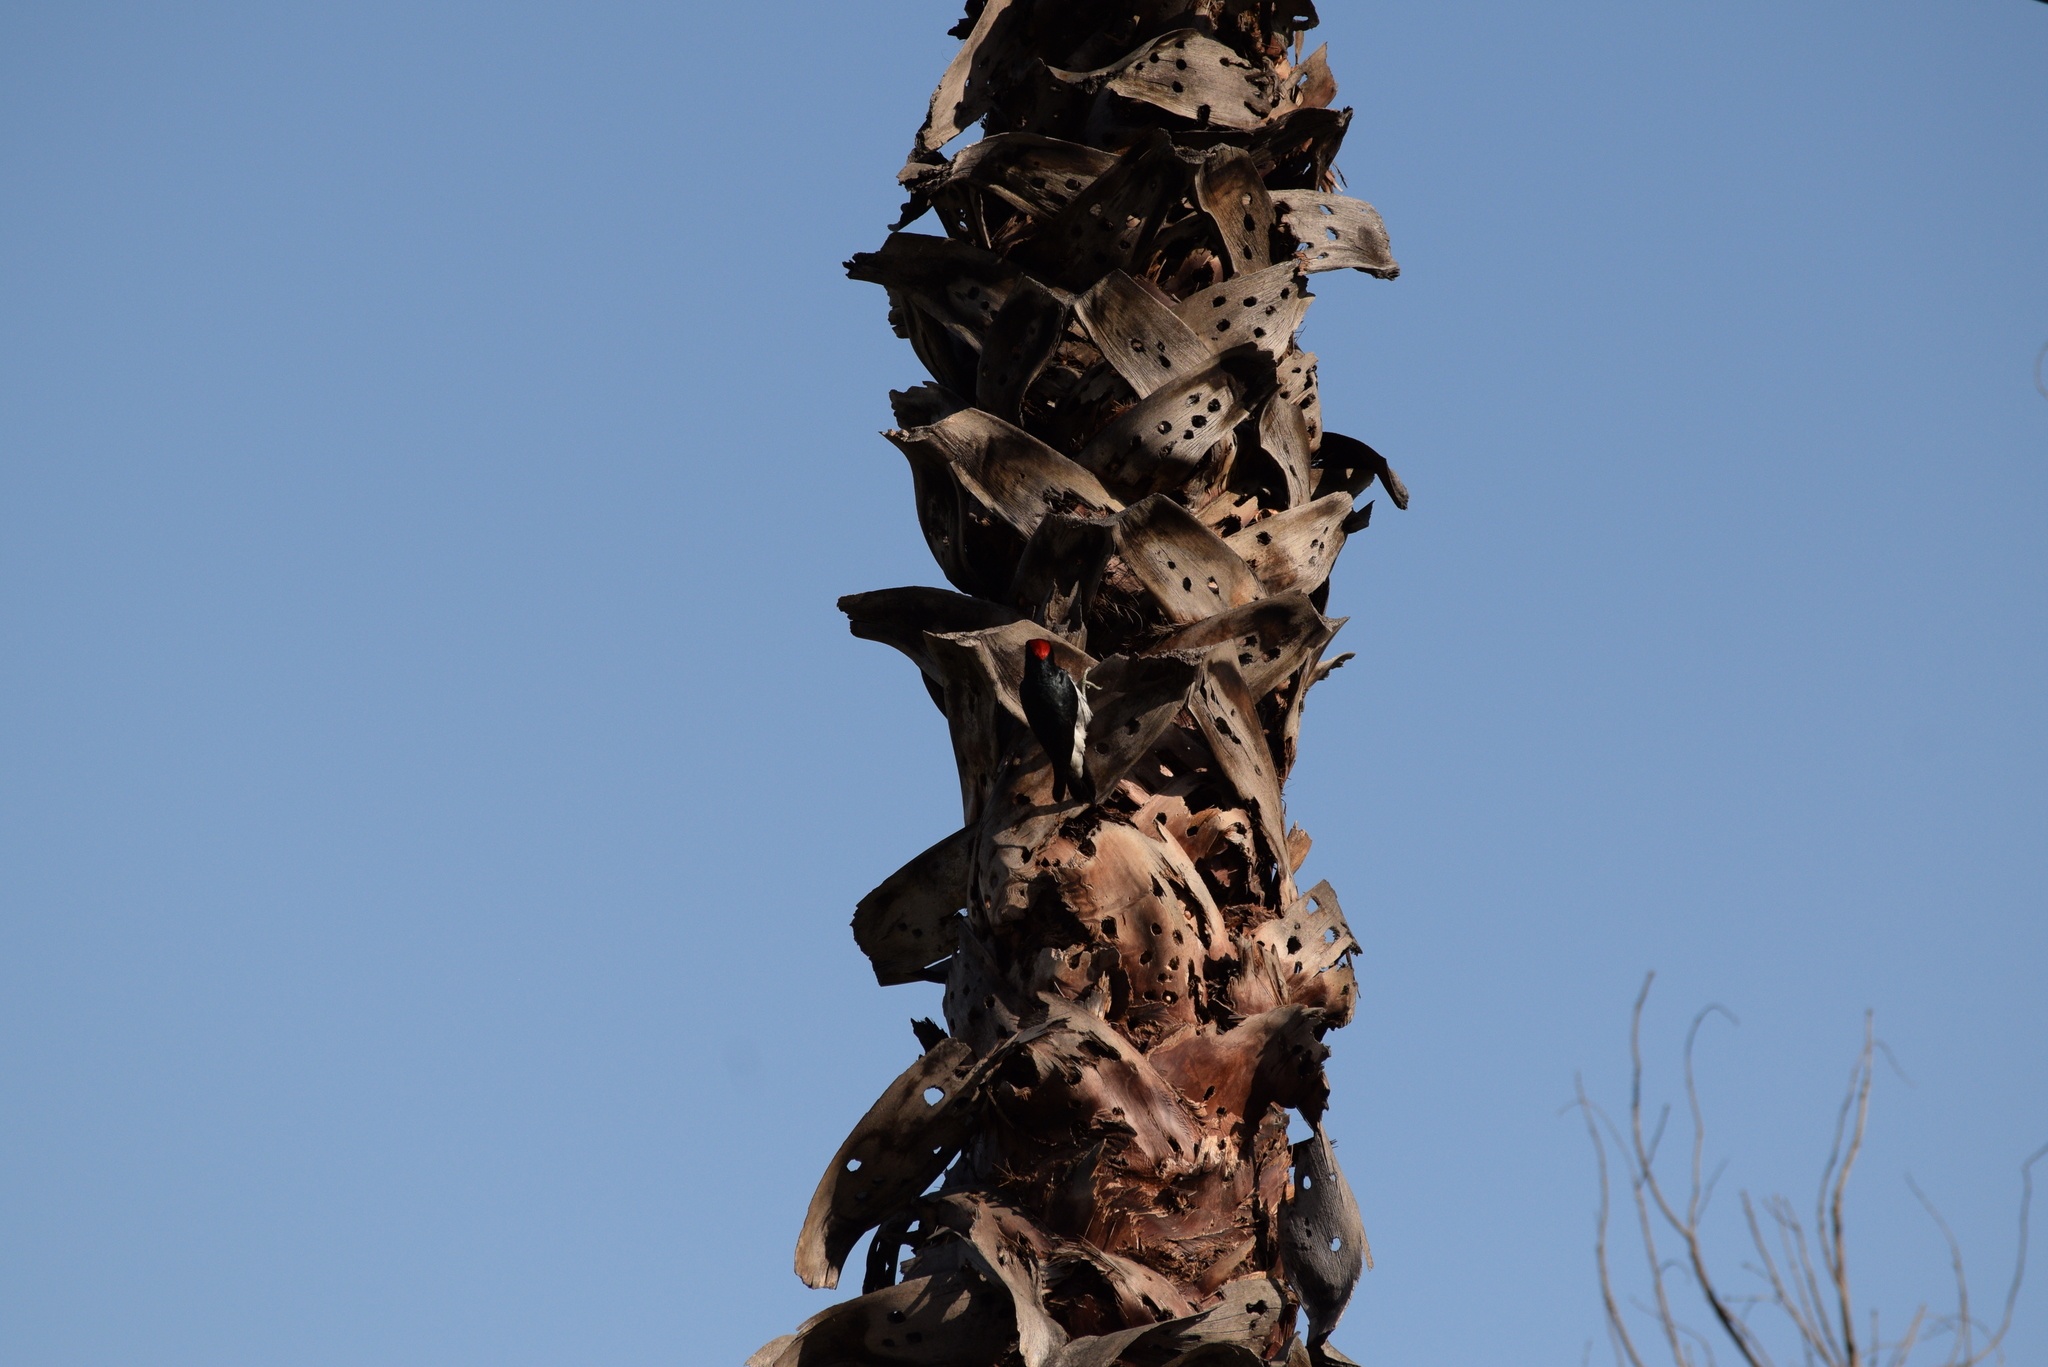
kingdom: Animalia
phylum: Chordata
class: Aves
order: Piciformes
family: Picidae
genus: Melanerpes
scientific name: Melanerpes formicivorus
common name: Acorn woodpecker
